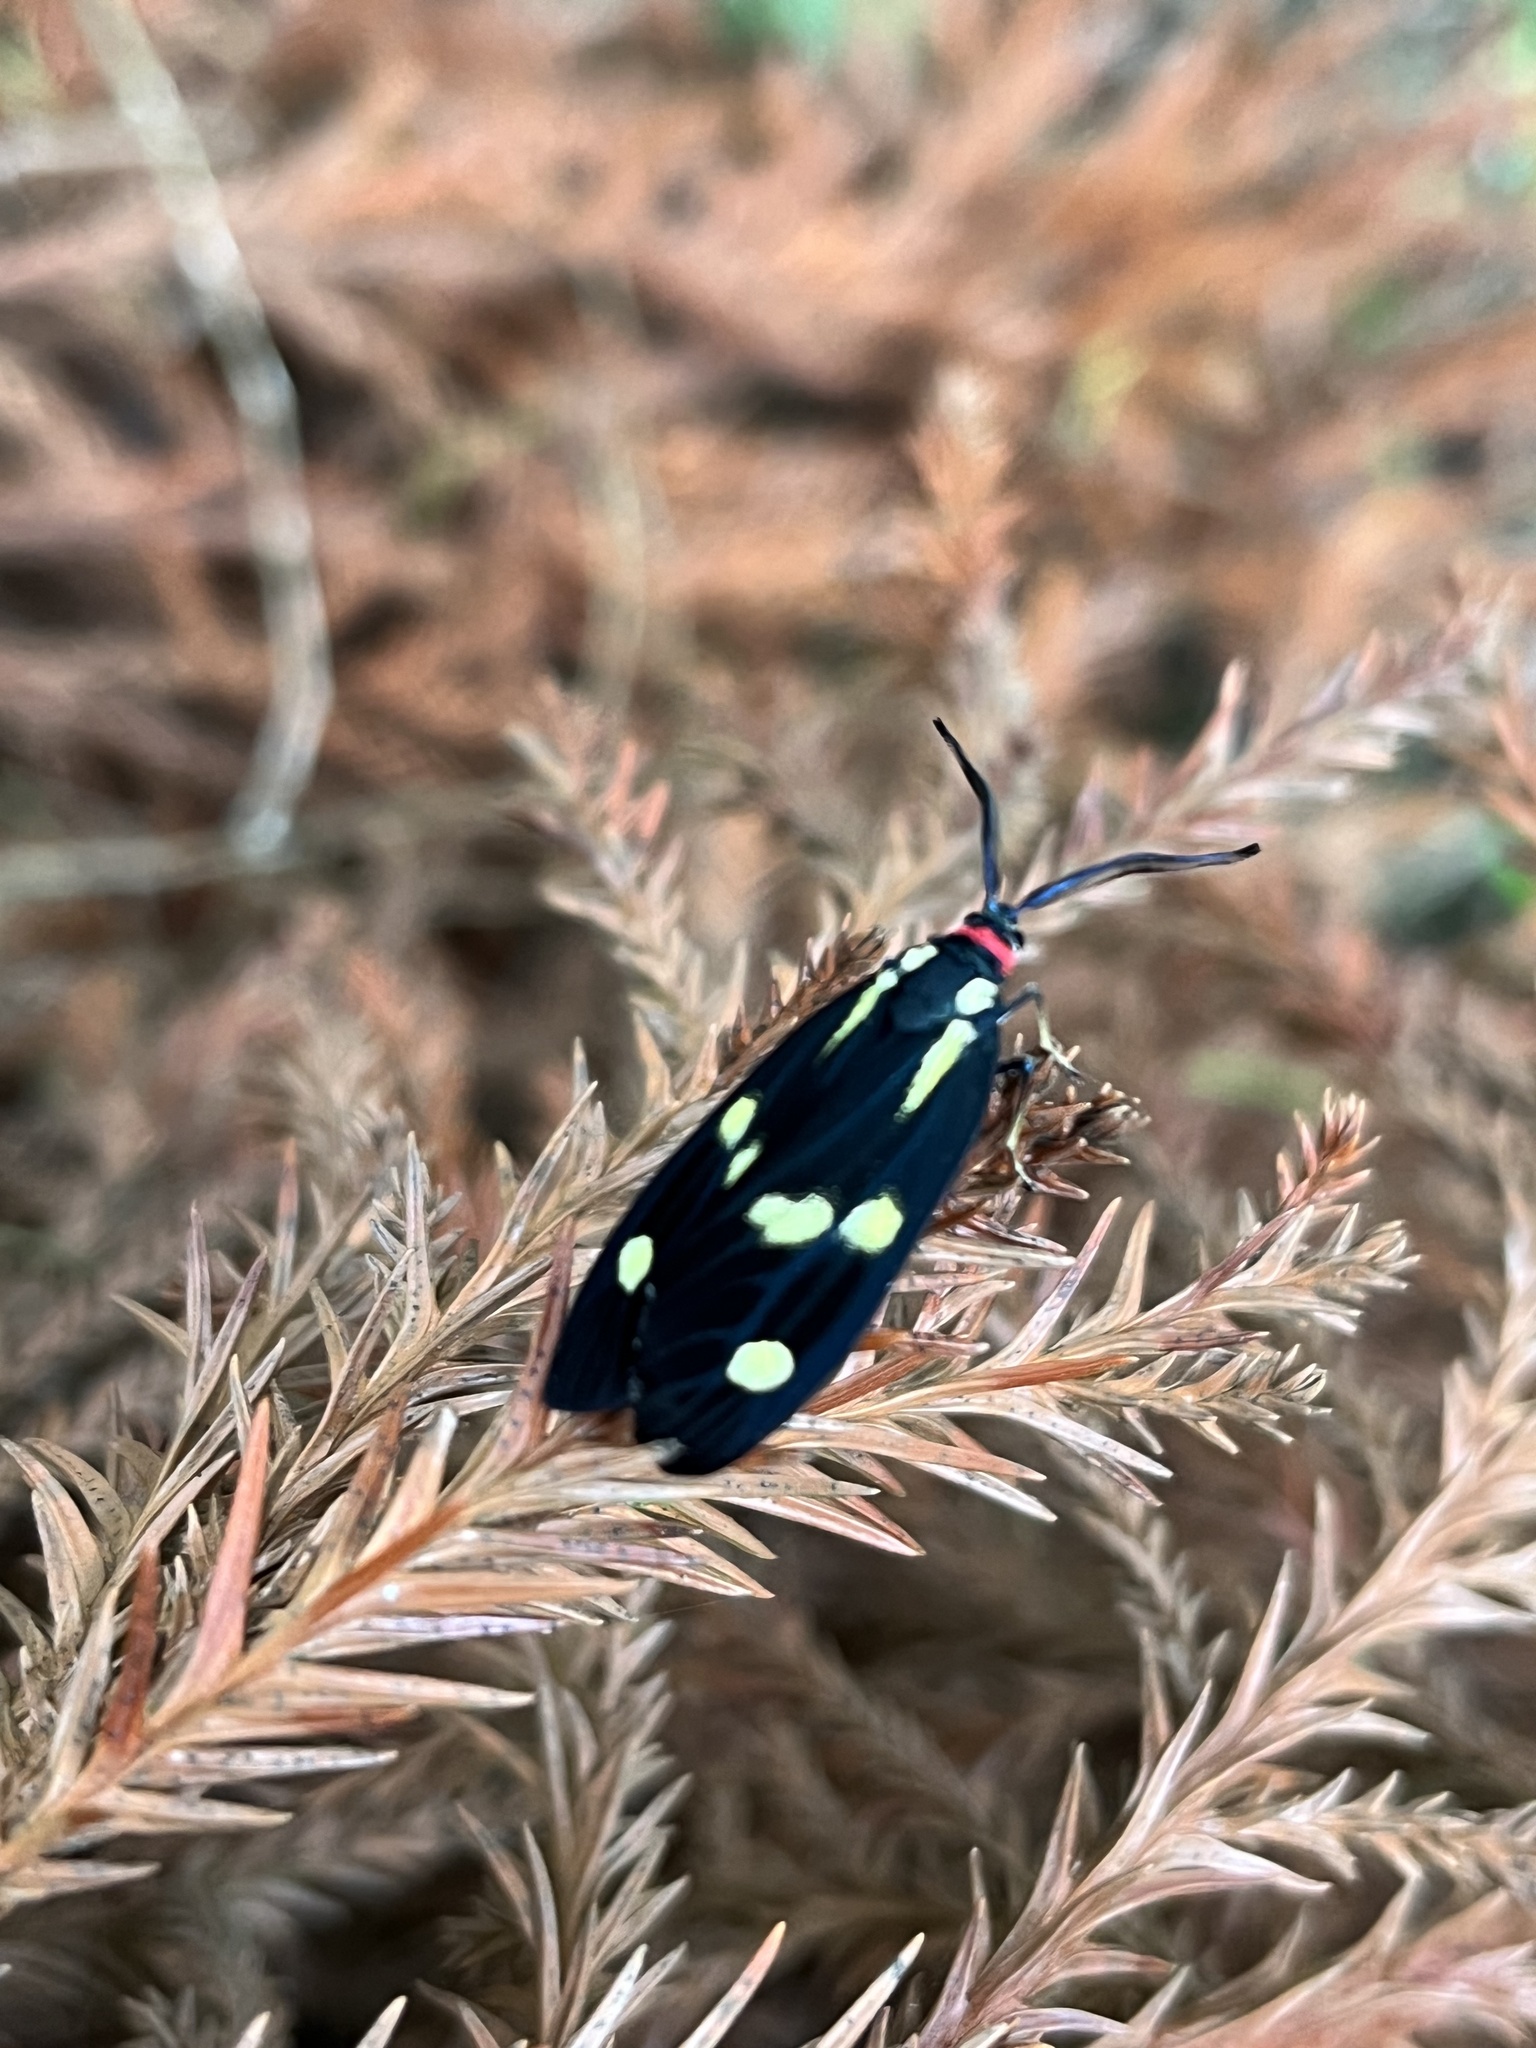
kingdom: Animalia
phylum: Arthropoda
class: Insecta
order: Lepidoptera
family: Zygaenidae
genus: Soritia
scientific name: Soritia strandi
